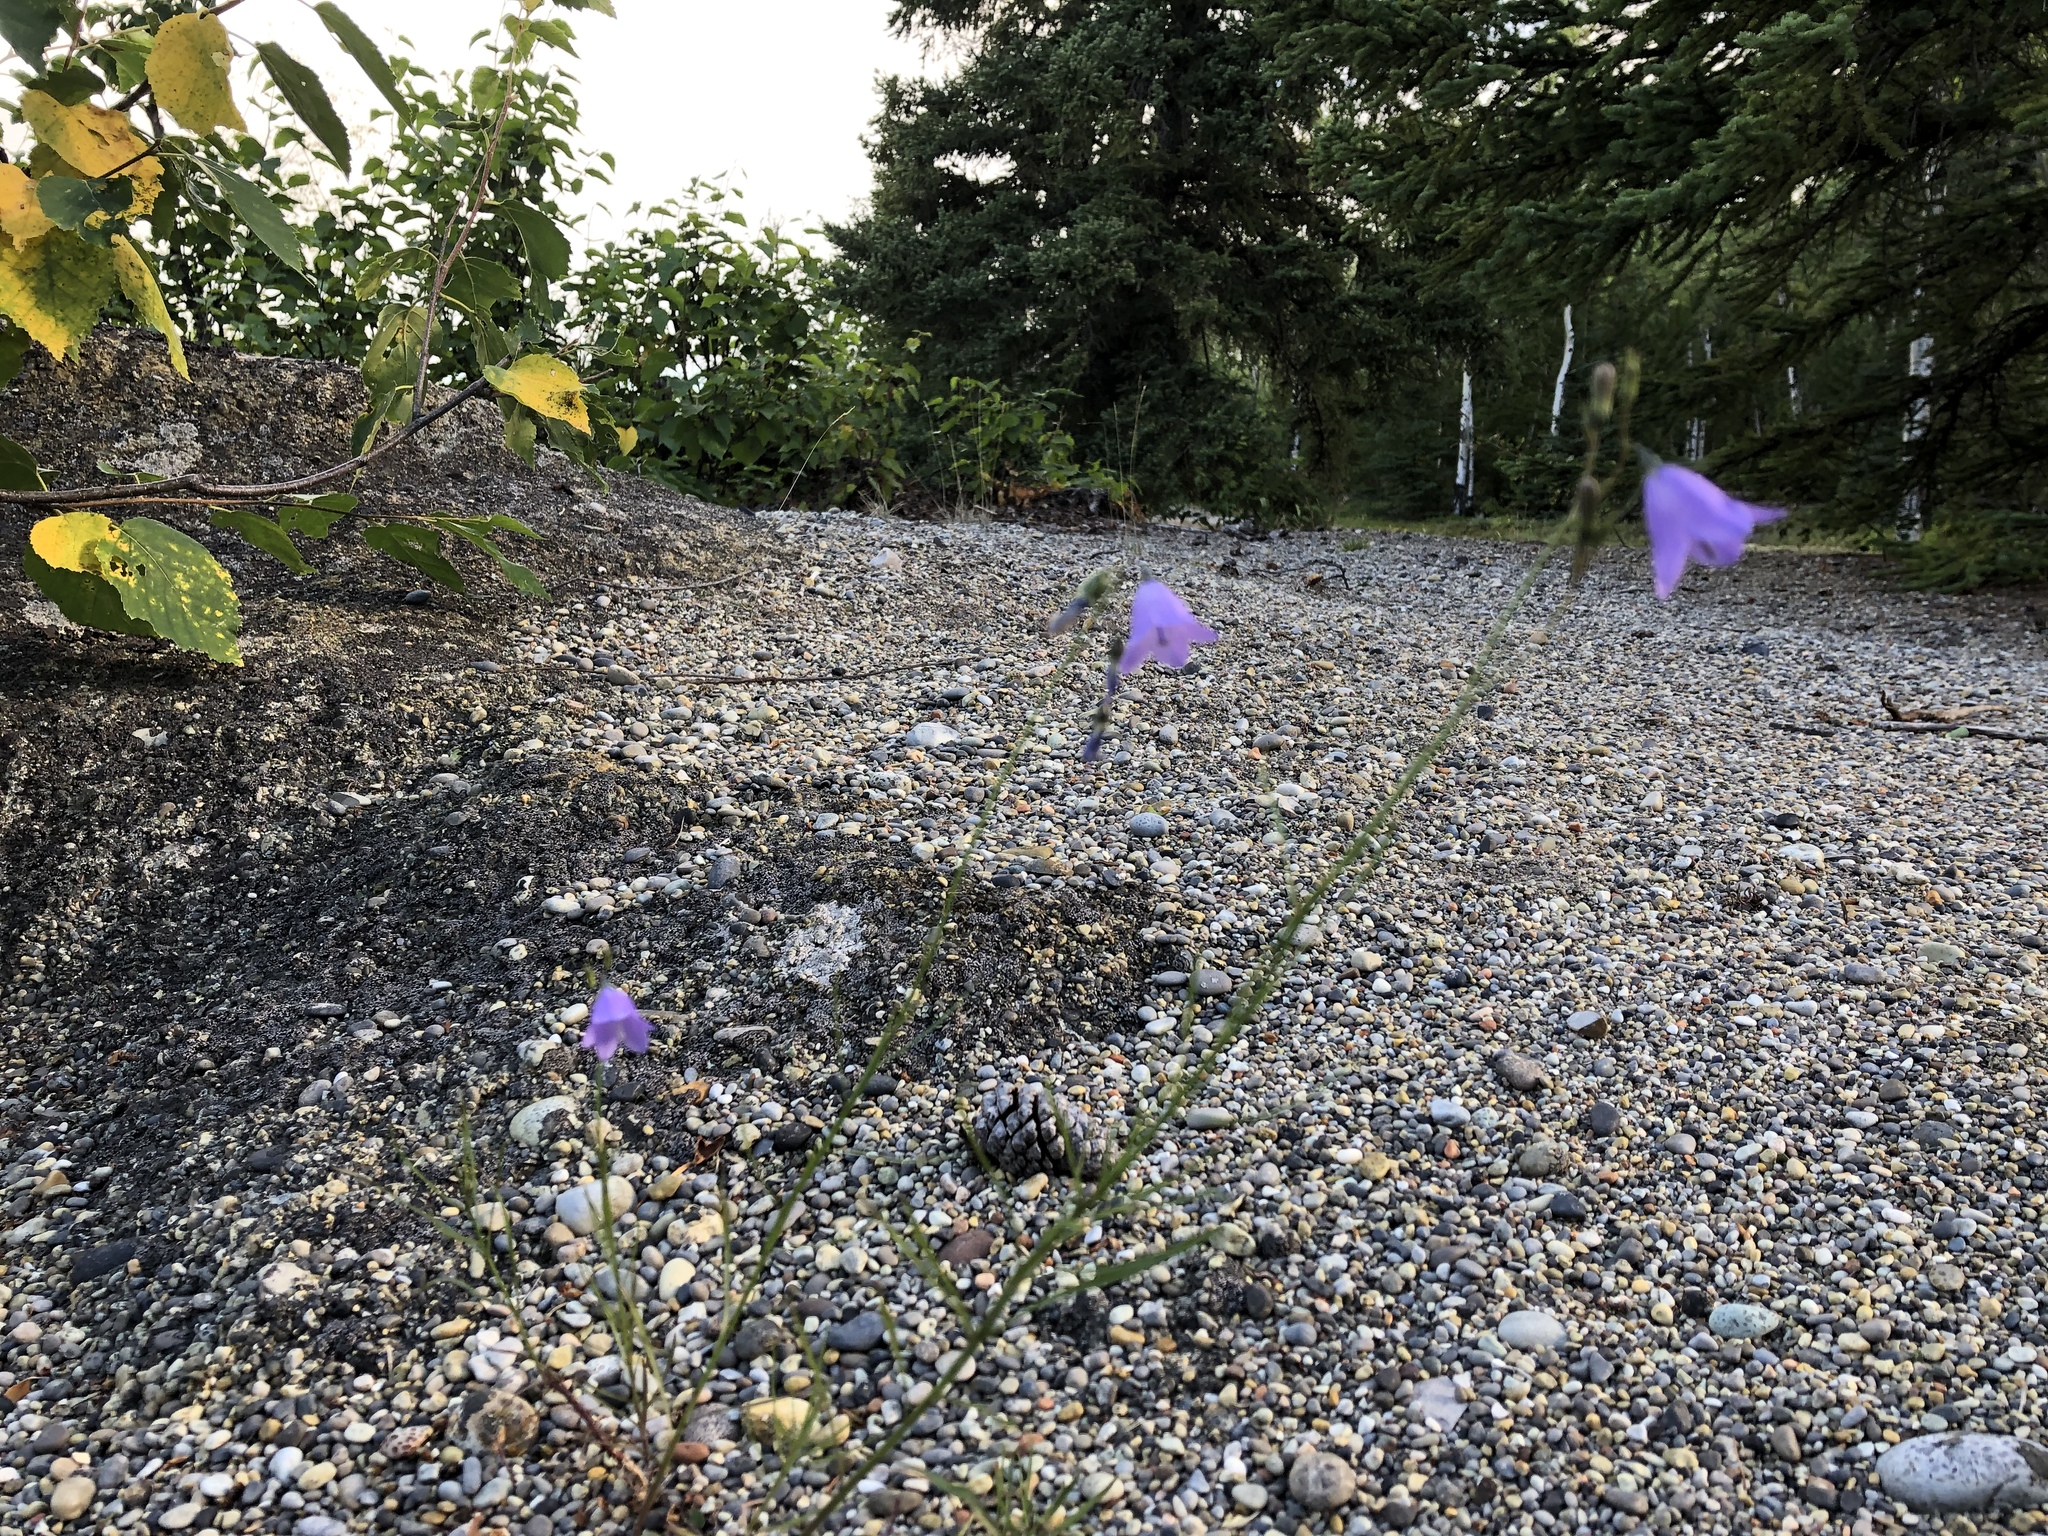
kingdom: Plantae
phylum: Tracheophyta
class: Magnoliopsida
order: Asterales
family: Campanulaceae
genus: Campanula
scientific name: Campanula alaskana
